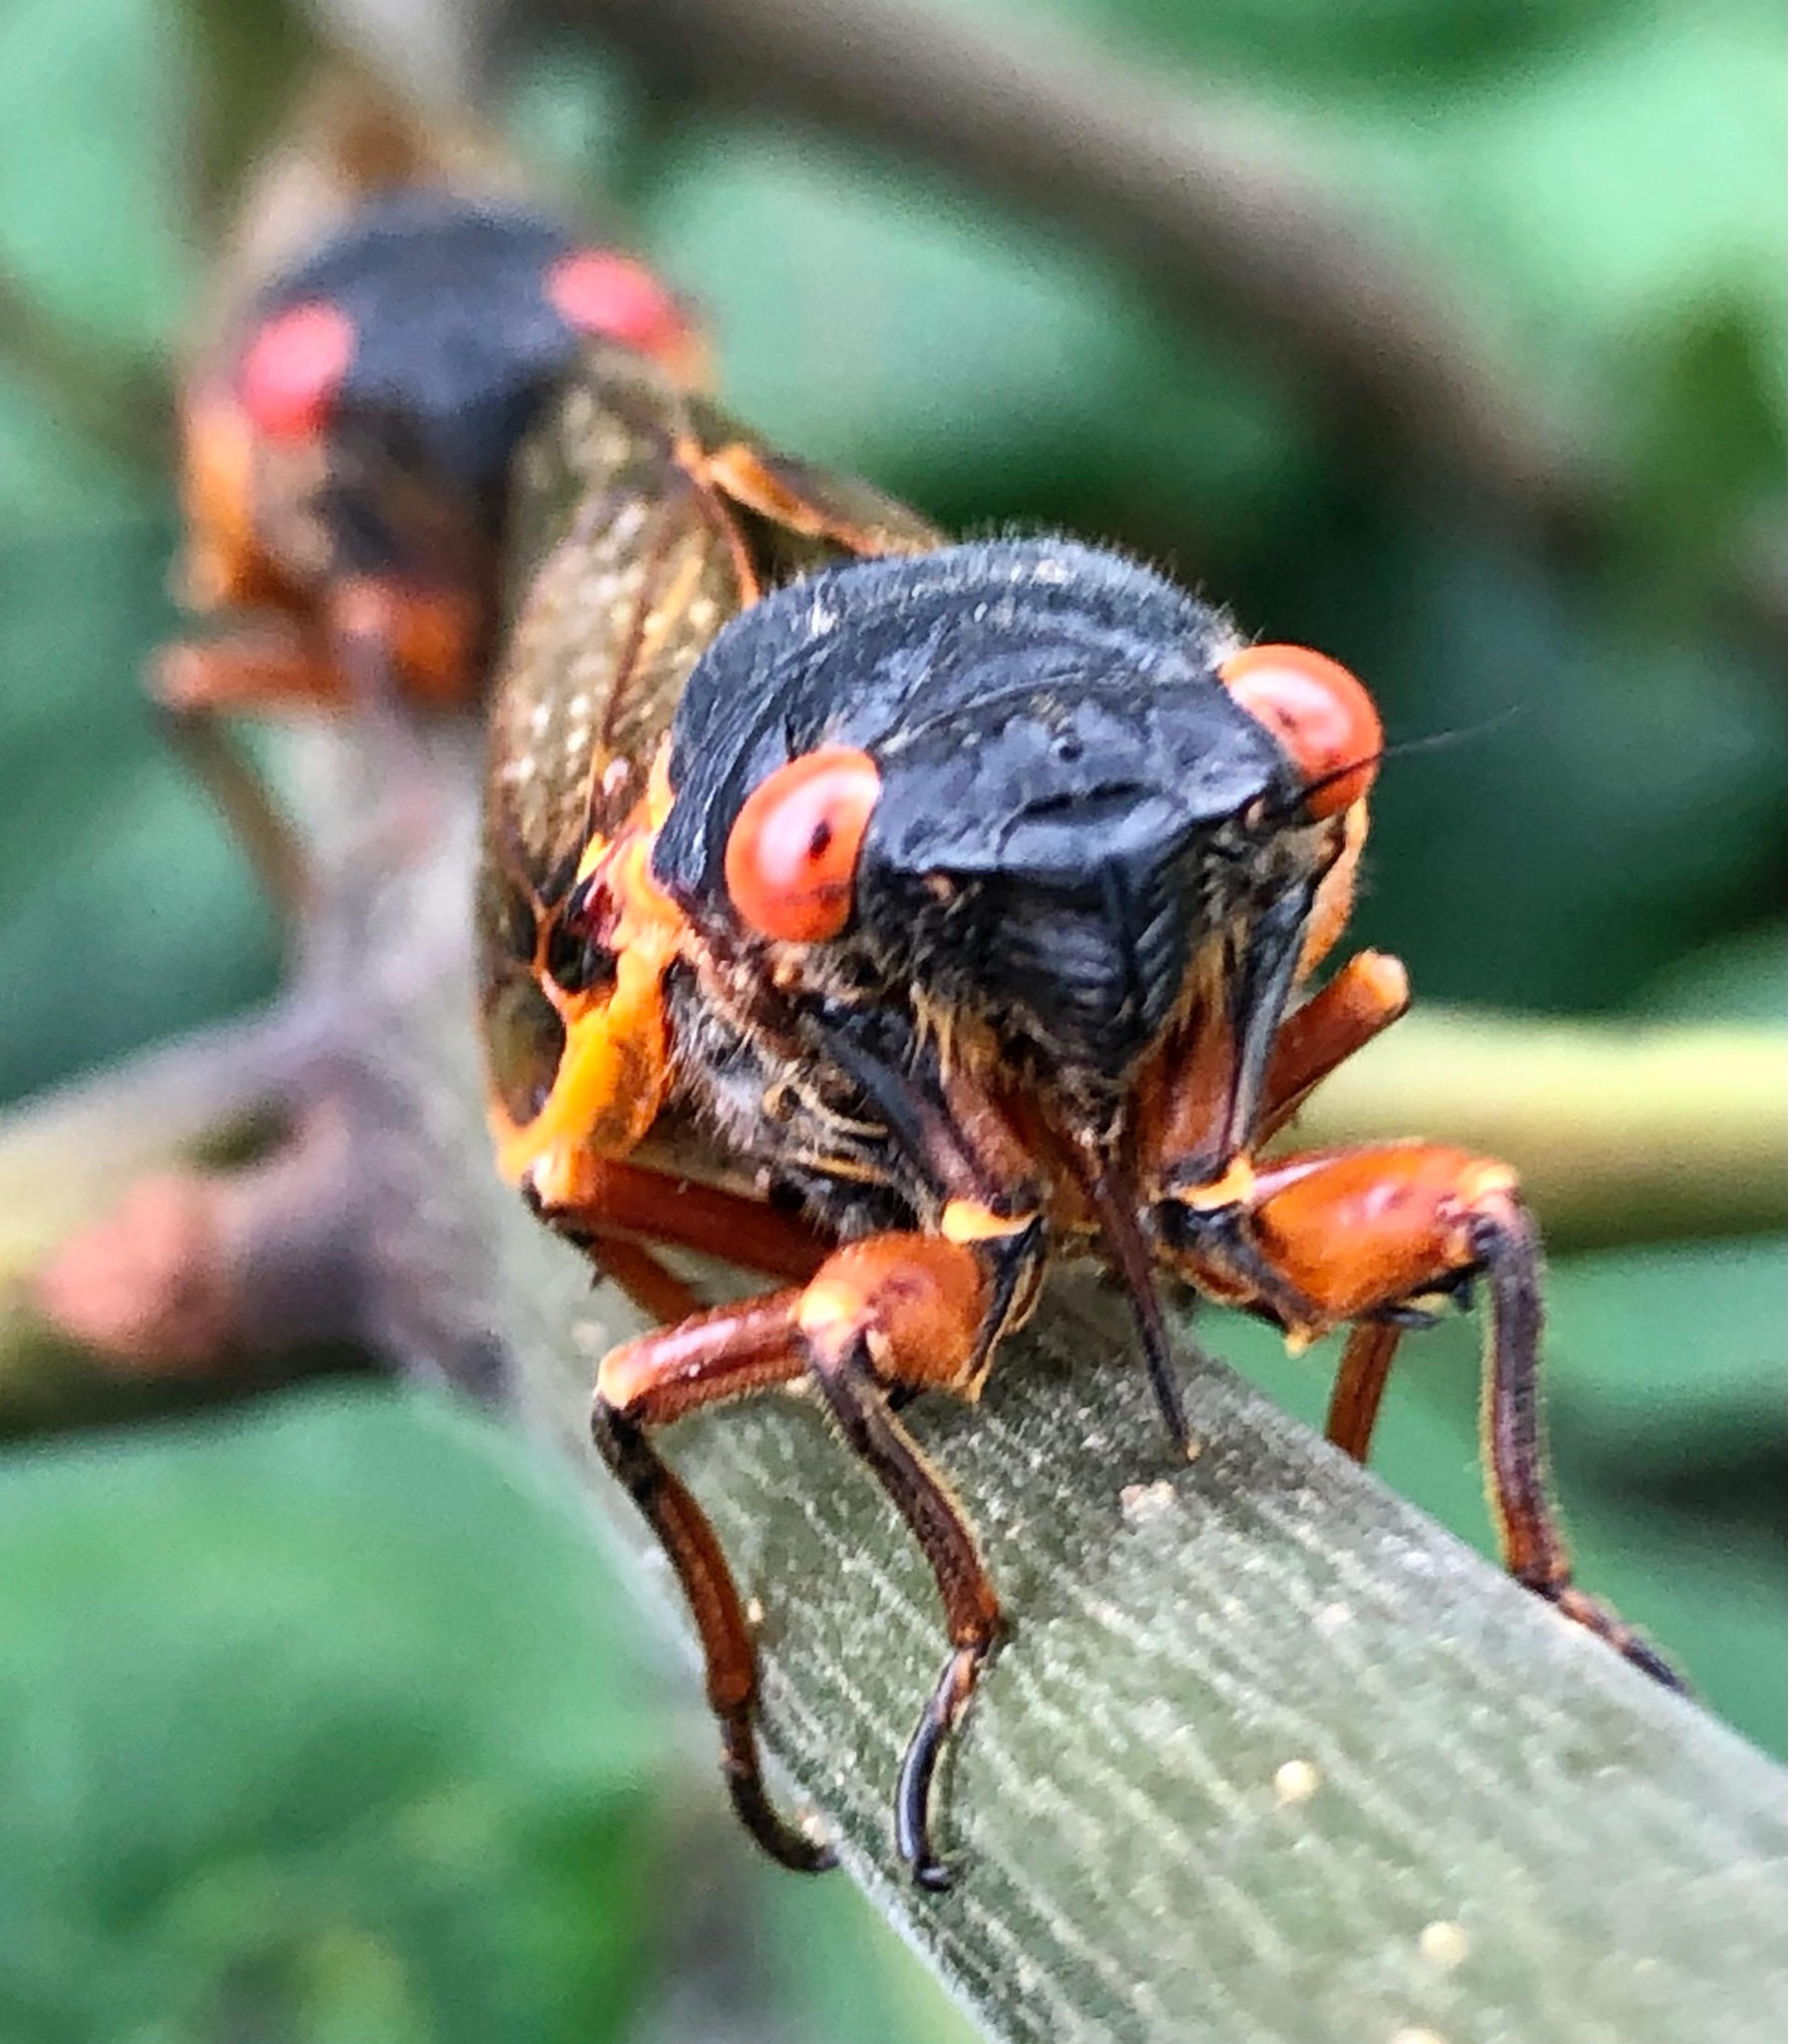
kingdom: Animalia
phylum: Arthropoda
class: Insecta
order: Hemiptera
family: Cicadidae
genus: Magicicada
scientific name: Magicicada septendecim
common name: Periodical cicada
